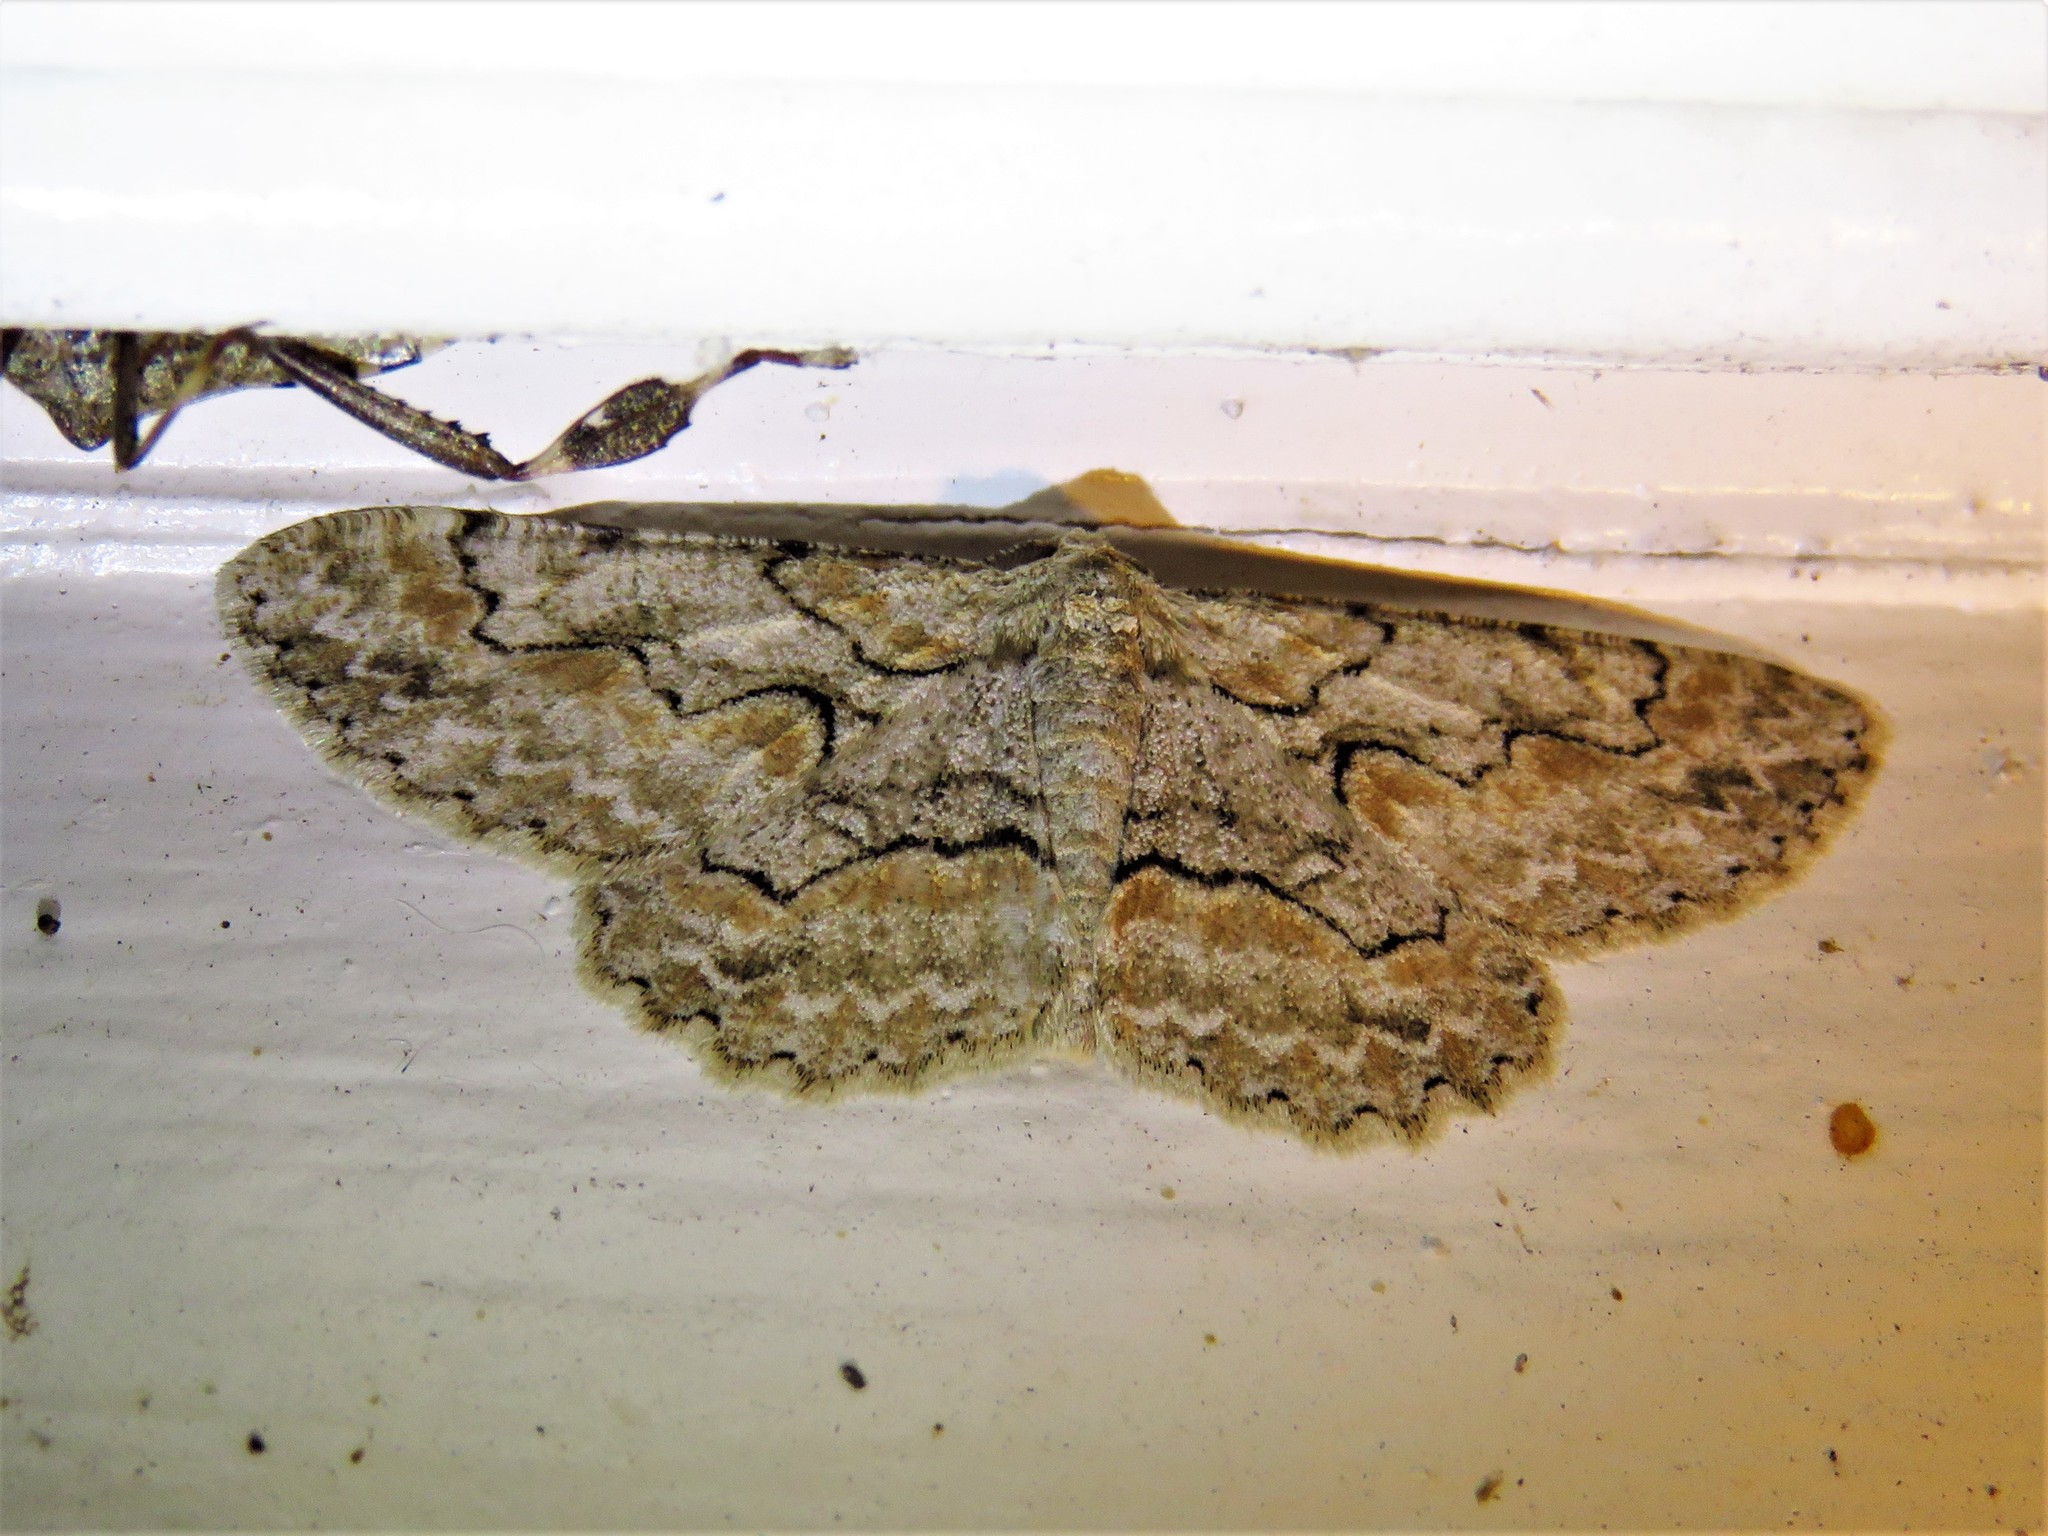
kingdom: Animalia
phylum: Arthropoda
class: Insecta
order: Lepidoptera
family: Geometridae
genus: Iridopsis
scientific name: Iridopsis defectaria
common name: Brown-shaded gray
